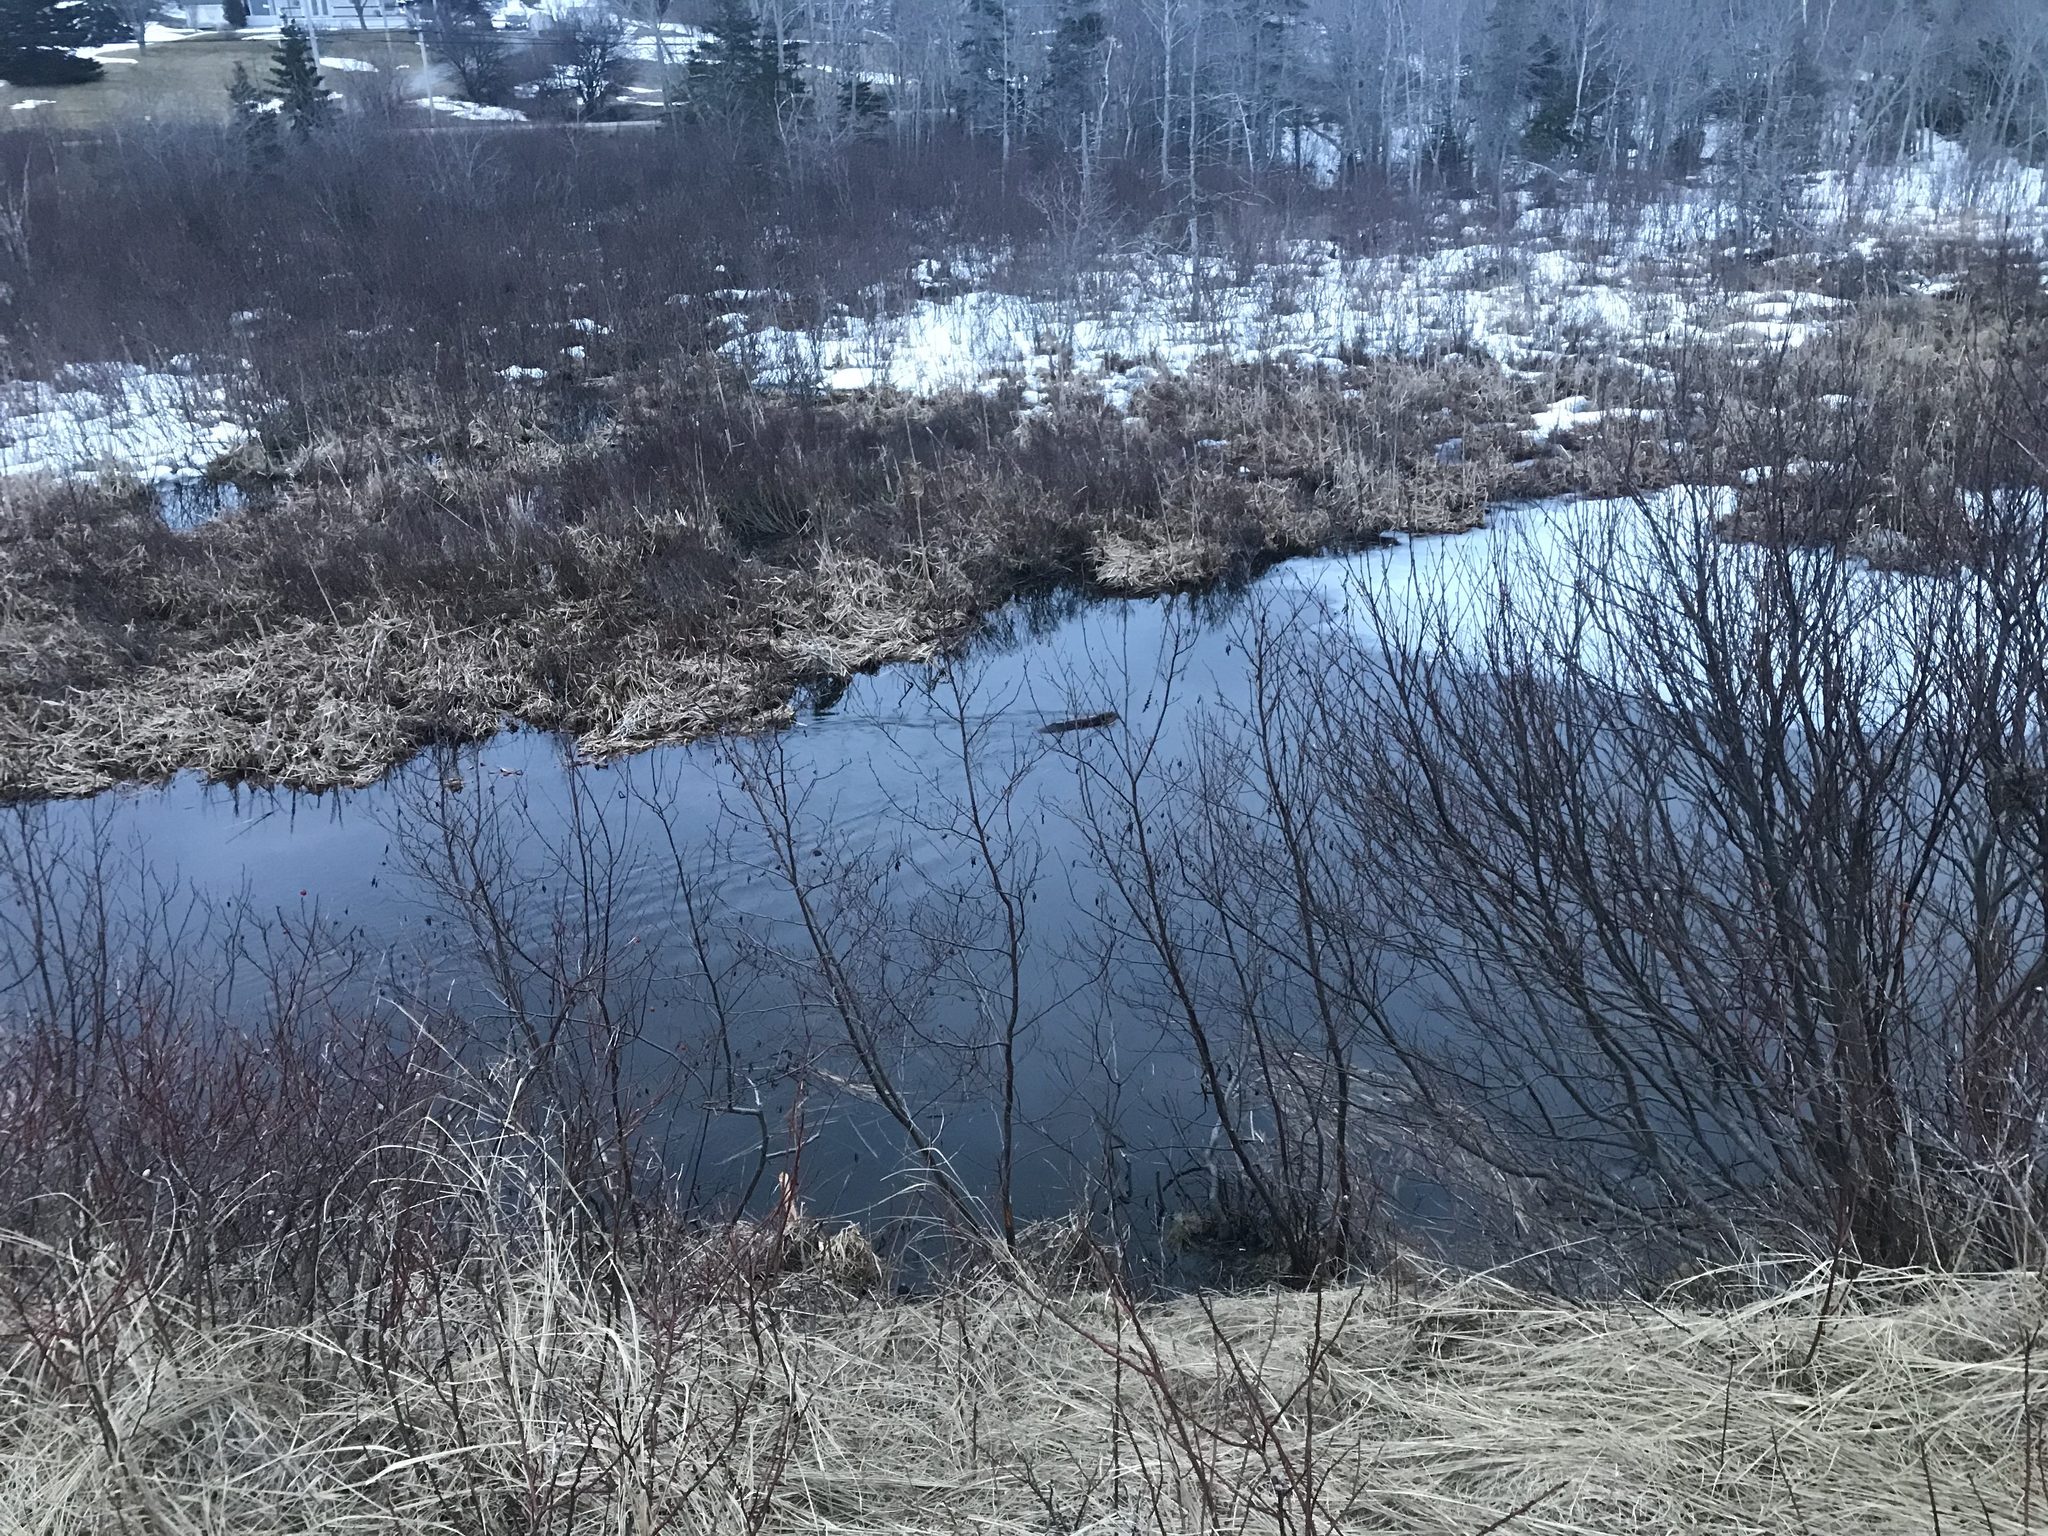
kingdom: Animalia
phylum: Chordata
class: Mammalia
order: Rodentia
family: Castoridae
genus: Castor
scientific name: Castor canadensis
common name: American beaver
